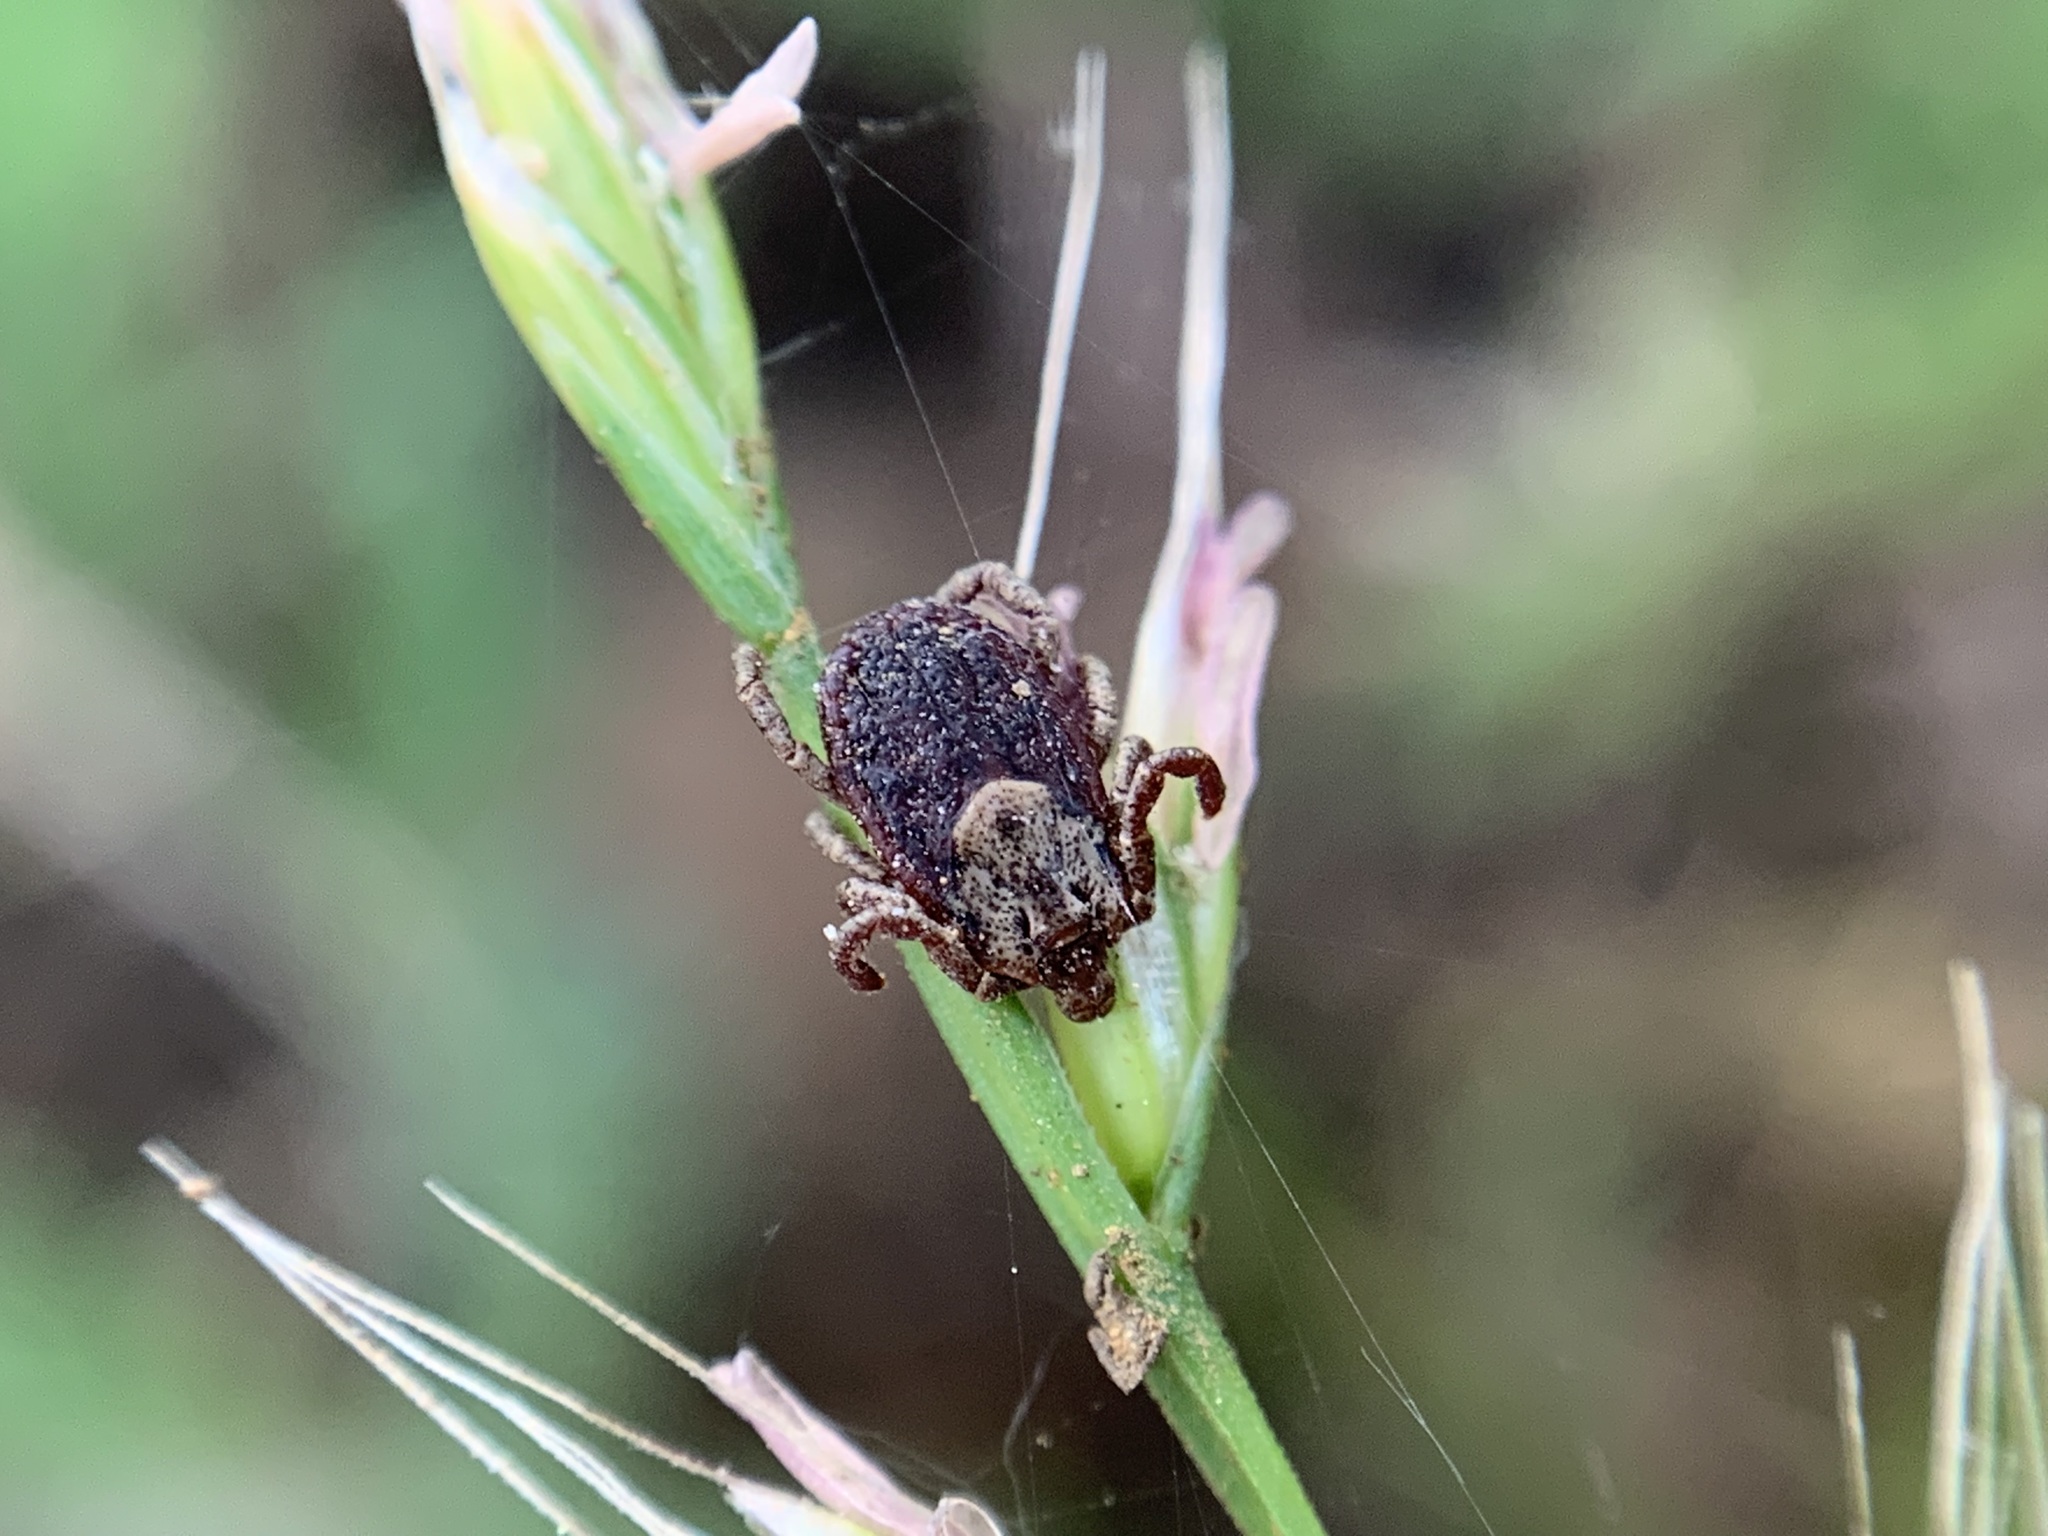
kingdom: Animalia
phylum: Arthropoda
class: Arachnida
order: Ixodida
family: Ixodidae
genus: Dermacentor
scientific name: Dermacentor occidentalis
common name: Net tick
